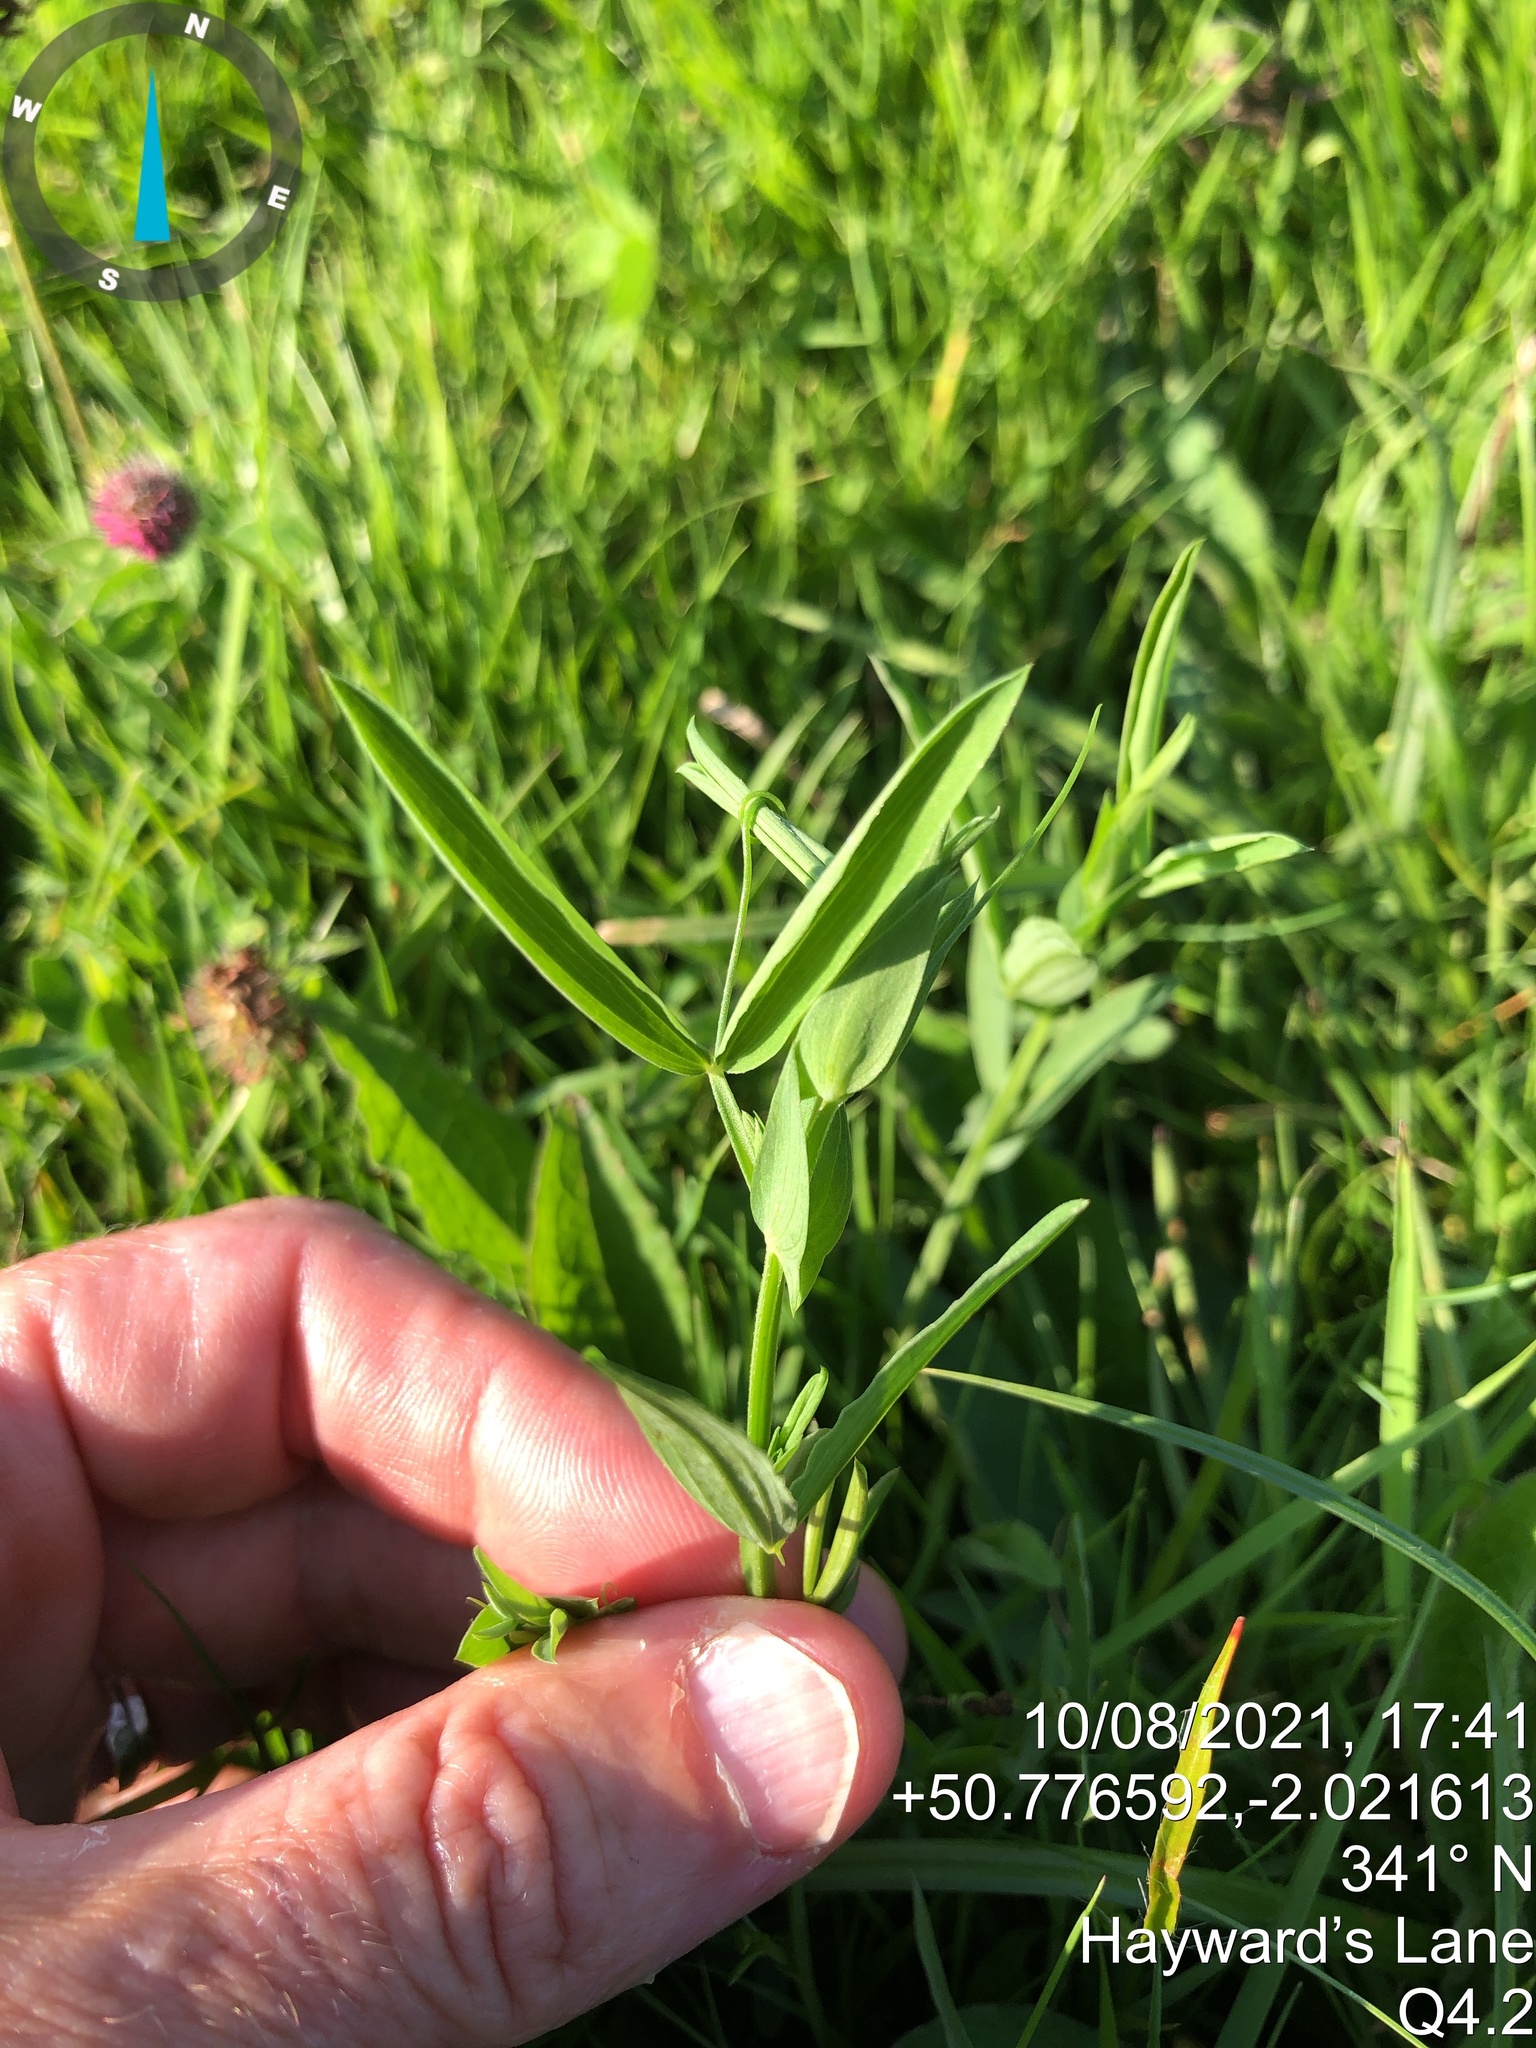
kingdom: Plantae
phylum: Tracheophyta
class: Magnoliopsida
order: Fabales
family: Fabaceae
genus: Lathyrus
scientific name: Lathyrus pratensis
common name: Meadow vetchling
